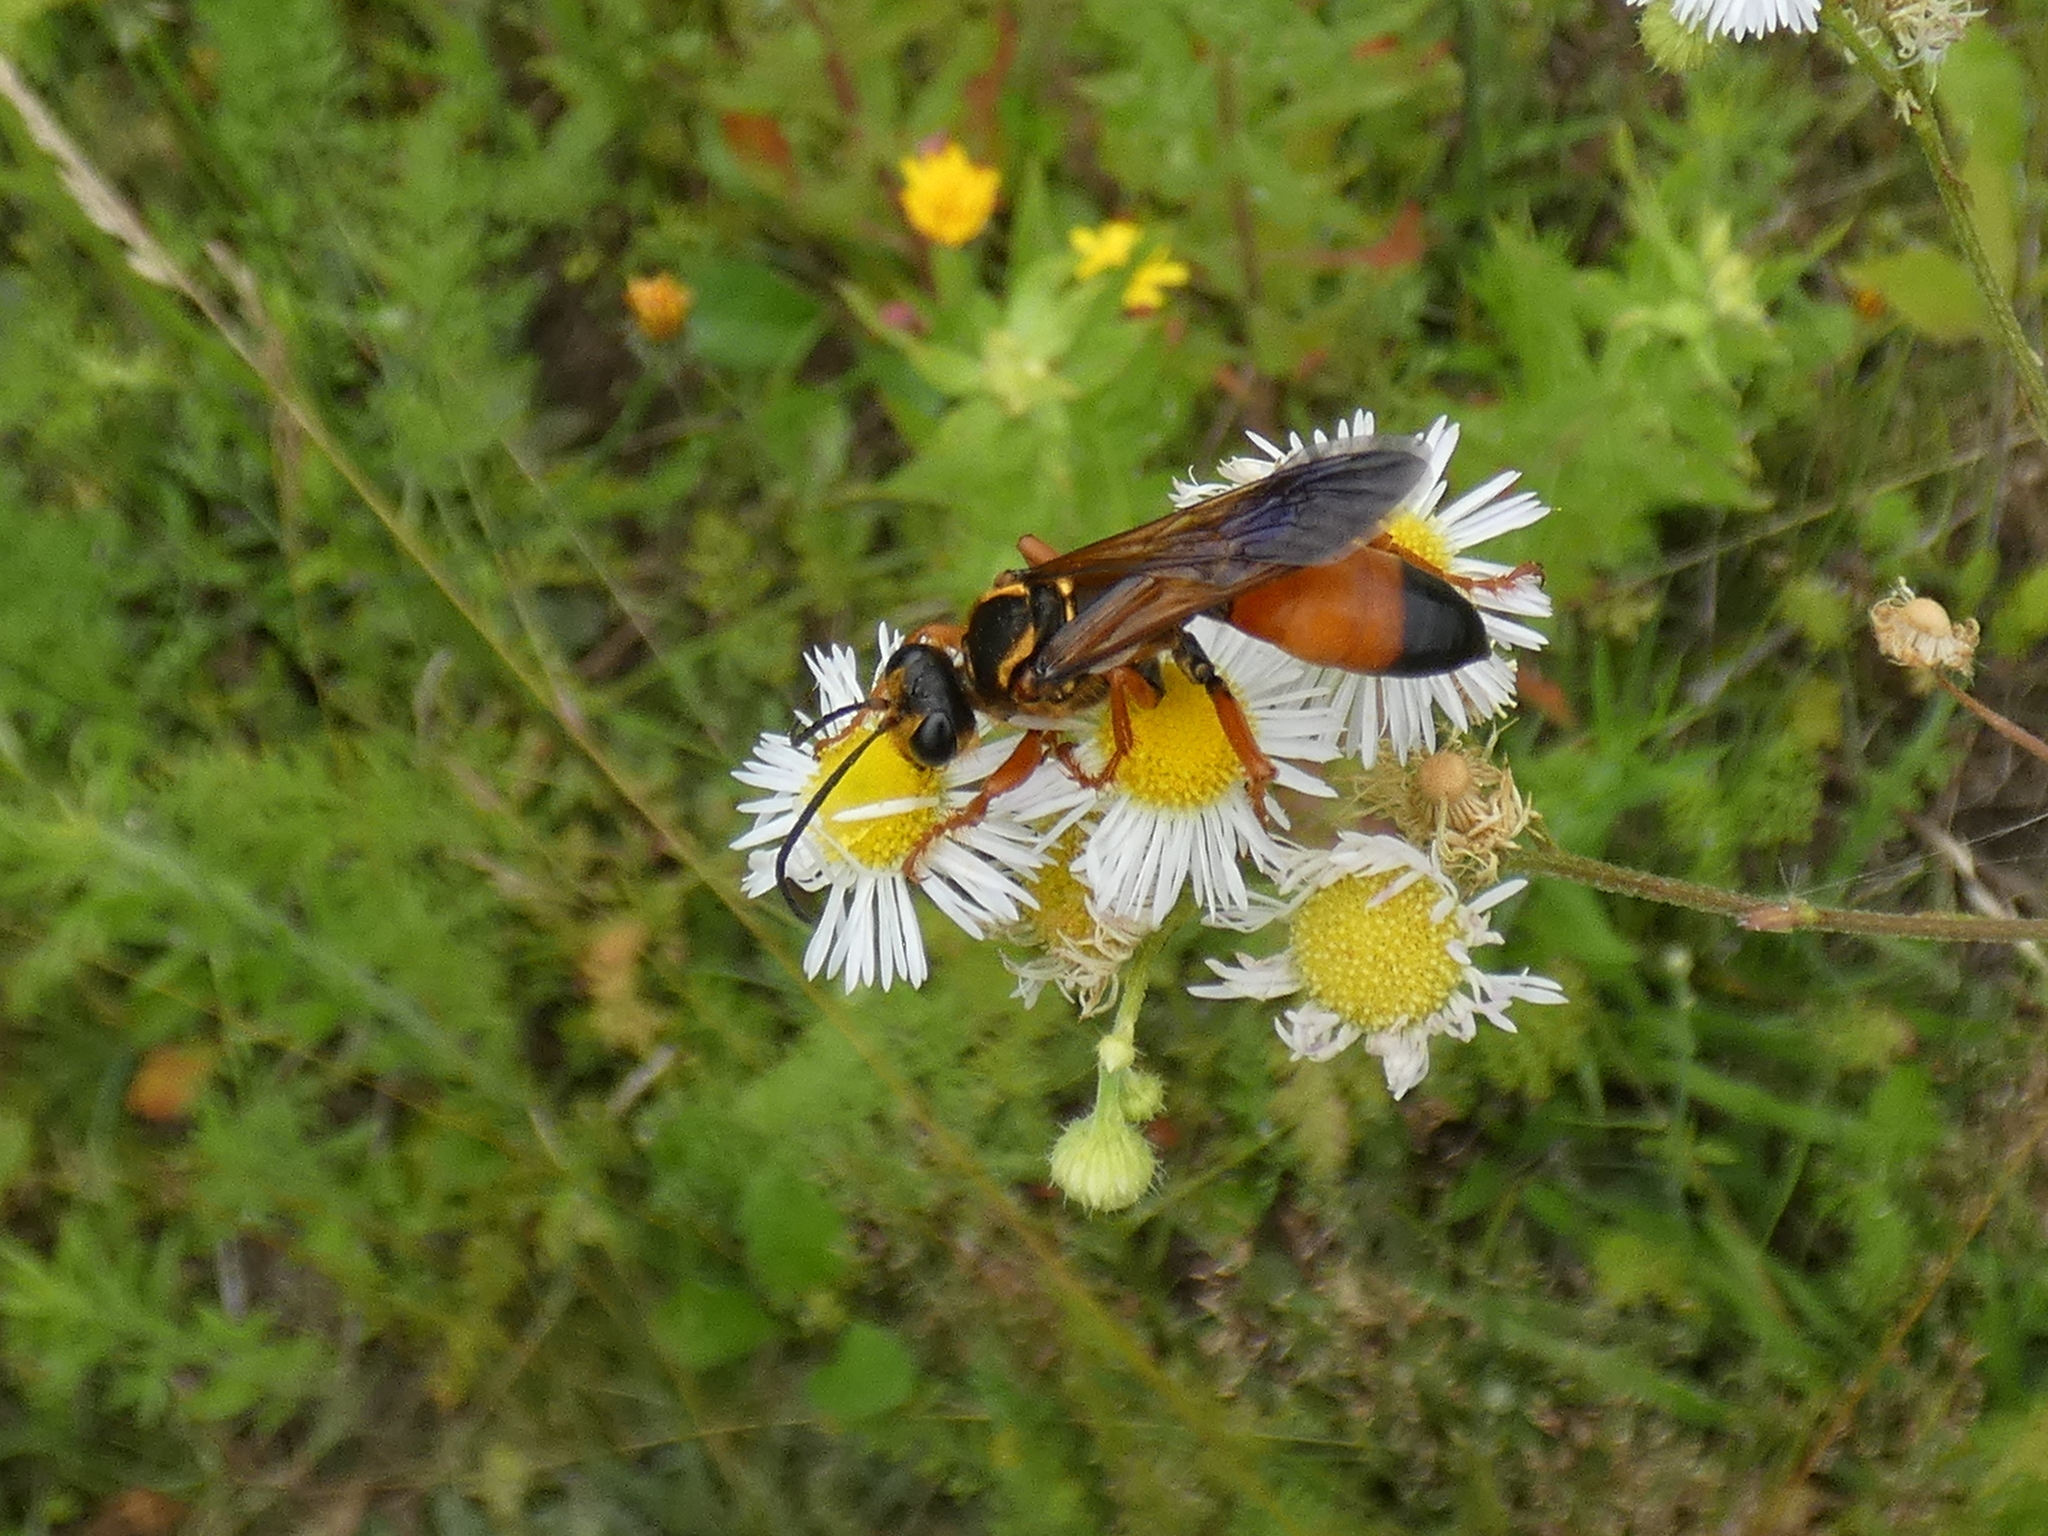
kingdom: Animalia
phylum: Arthropoda
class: Insecta
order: Hymenoptera
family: Sphecidae
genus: Sphex
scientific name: Sphex ichneumoneus
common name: Great golden digger wasp
